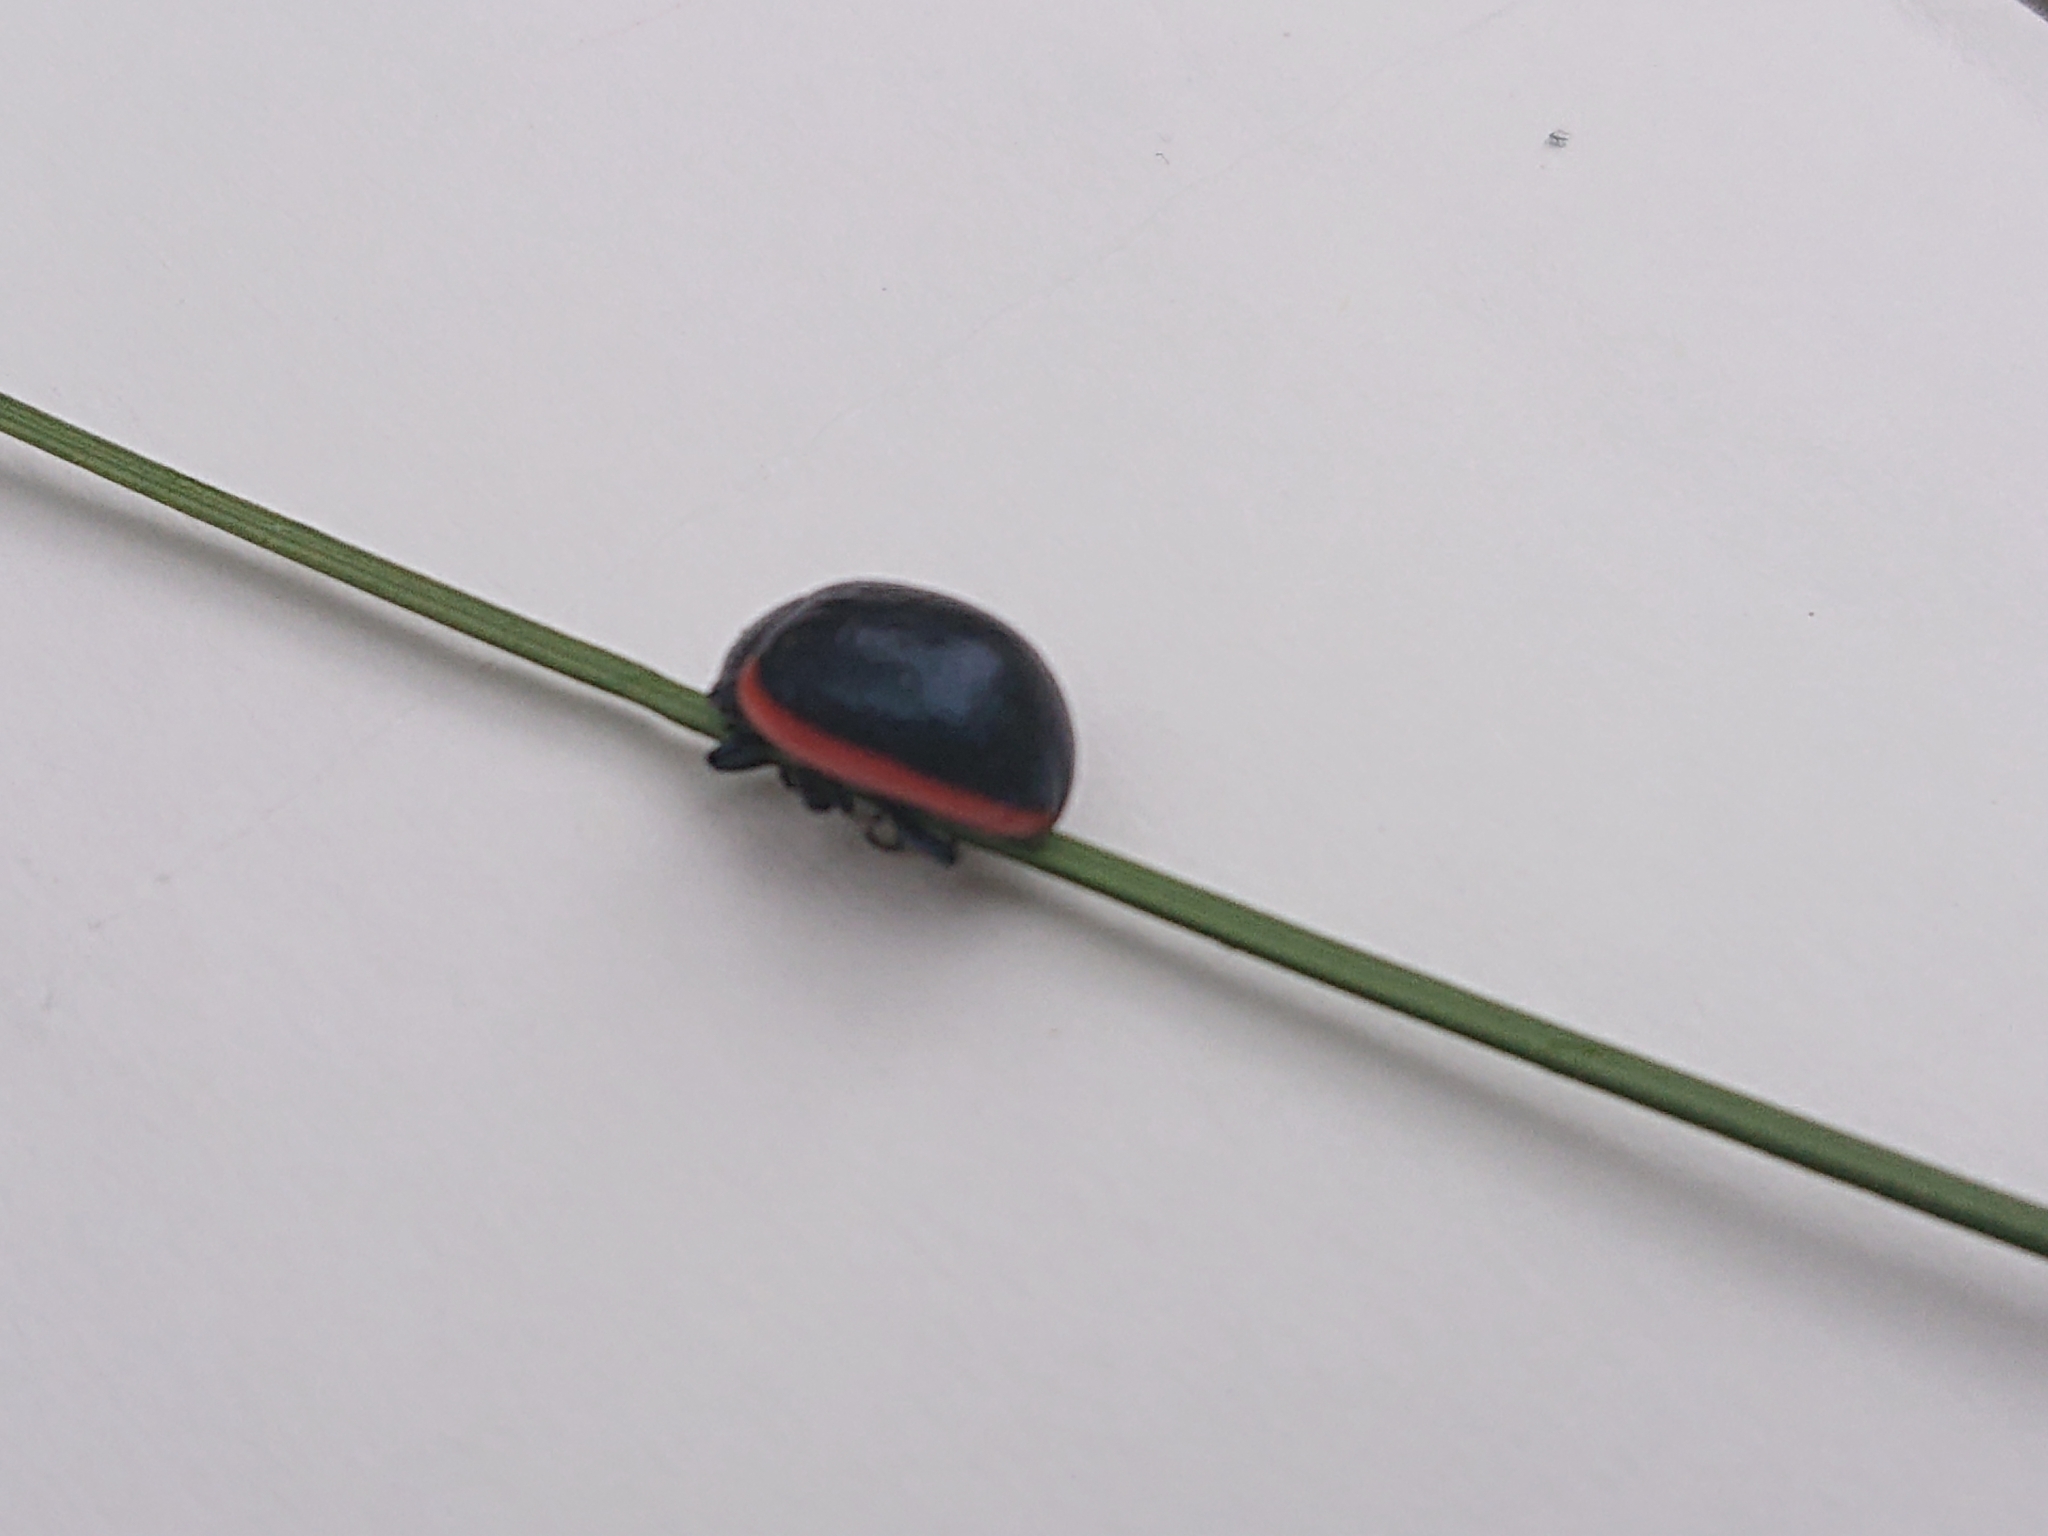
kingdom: Animalia
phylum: Arthropoda
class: Insecta
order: Coleoptera
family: Chrysomelidae
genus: Chrysolina
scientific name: Chrysolina sanguinolenta
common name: Toadflax leaf beetle
